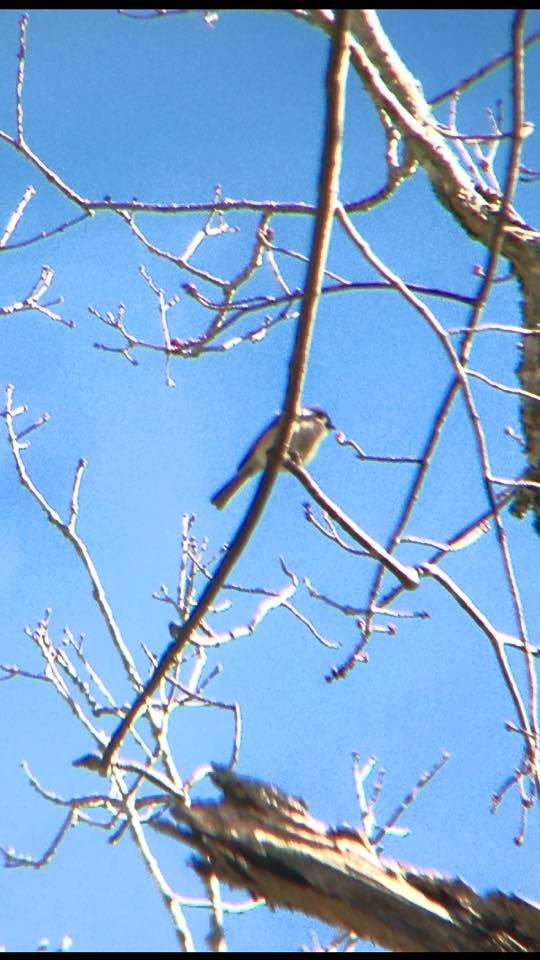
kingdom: Animalia
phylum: Chordata
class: Aves
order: Passeriformes
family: Paridae
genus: Baeolophus
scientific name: Baeolophus bicolor
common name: Tufted titmouse
